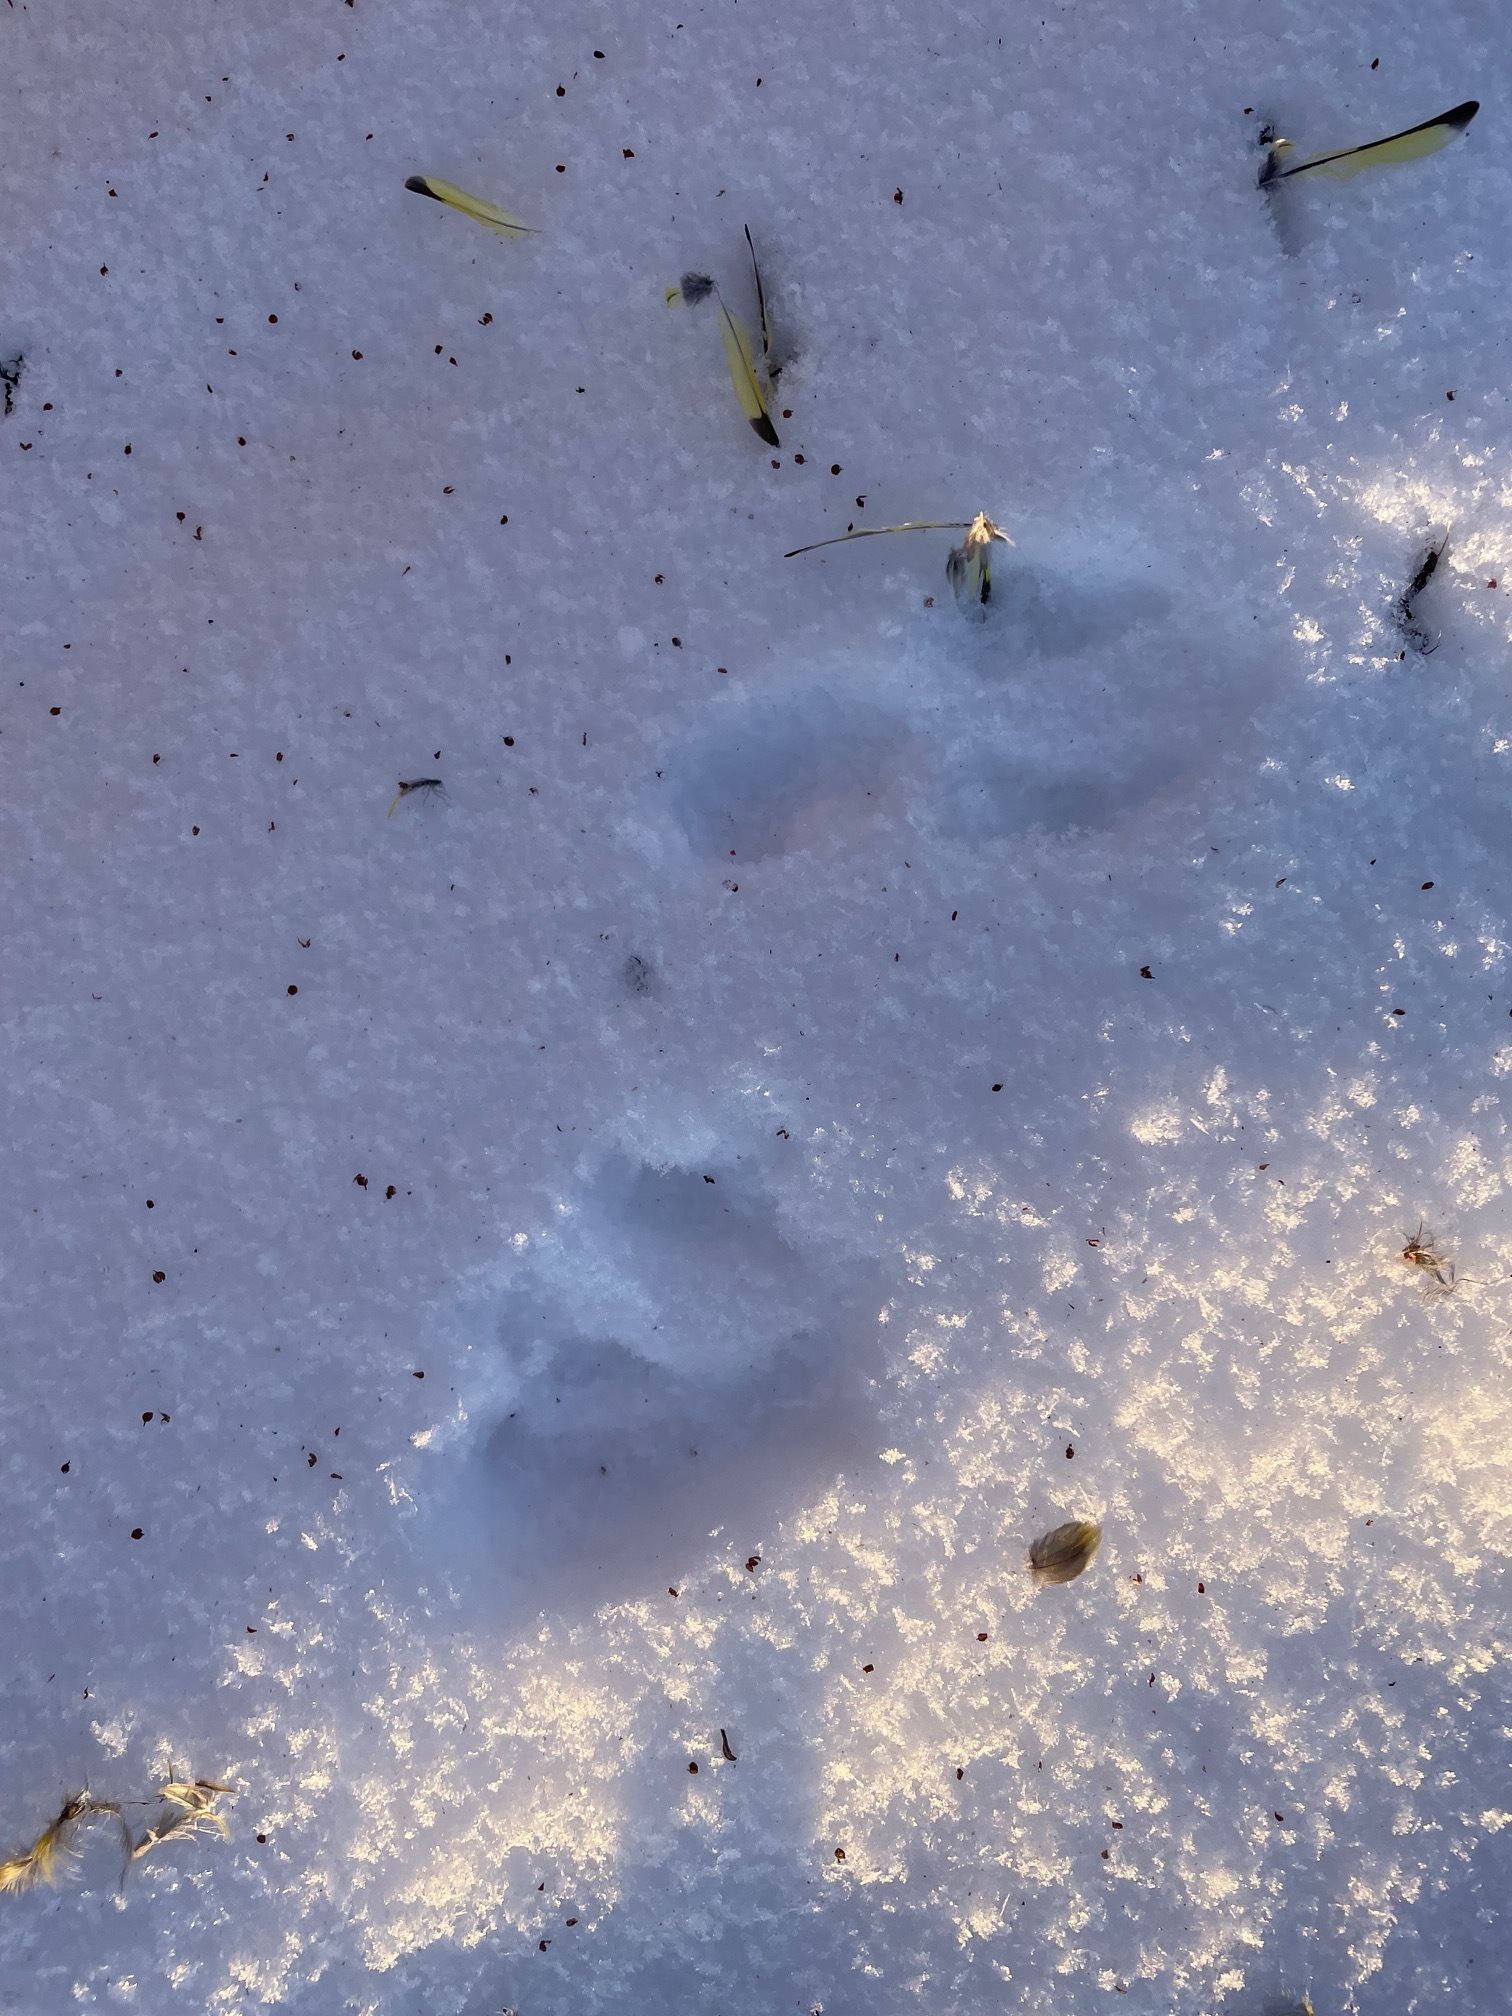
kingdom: Animalia
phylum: Chordata
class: Aves
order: Passeriformes
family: Fringillidae
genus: Spinus
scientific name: Spinus spinus
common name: Eurasian siskin
